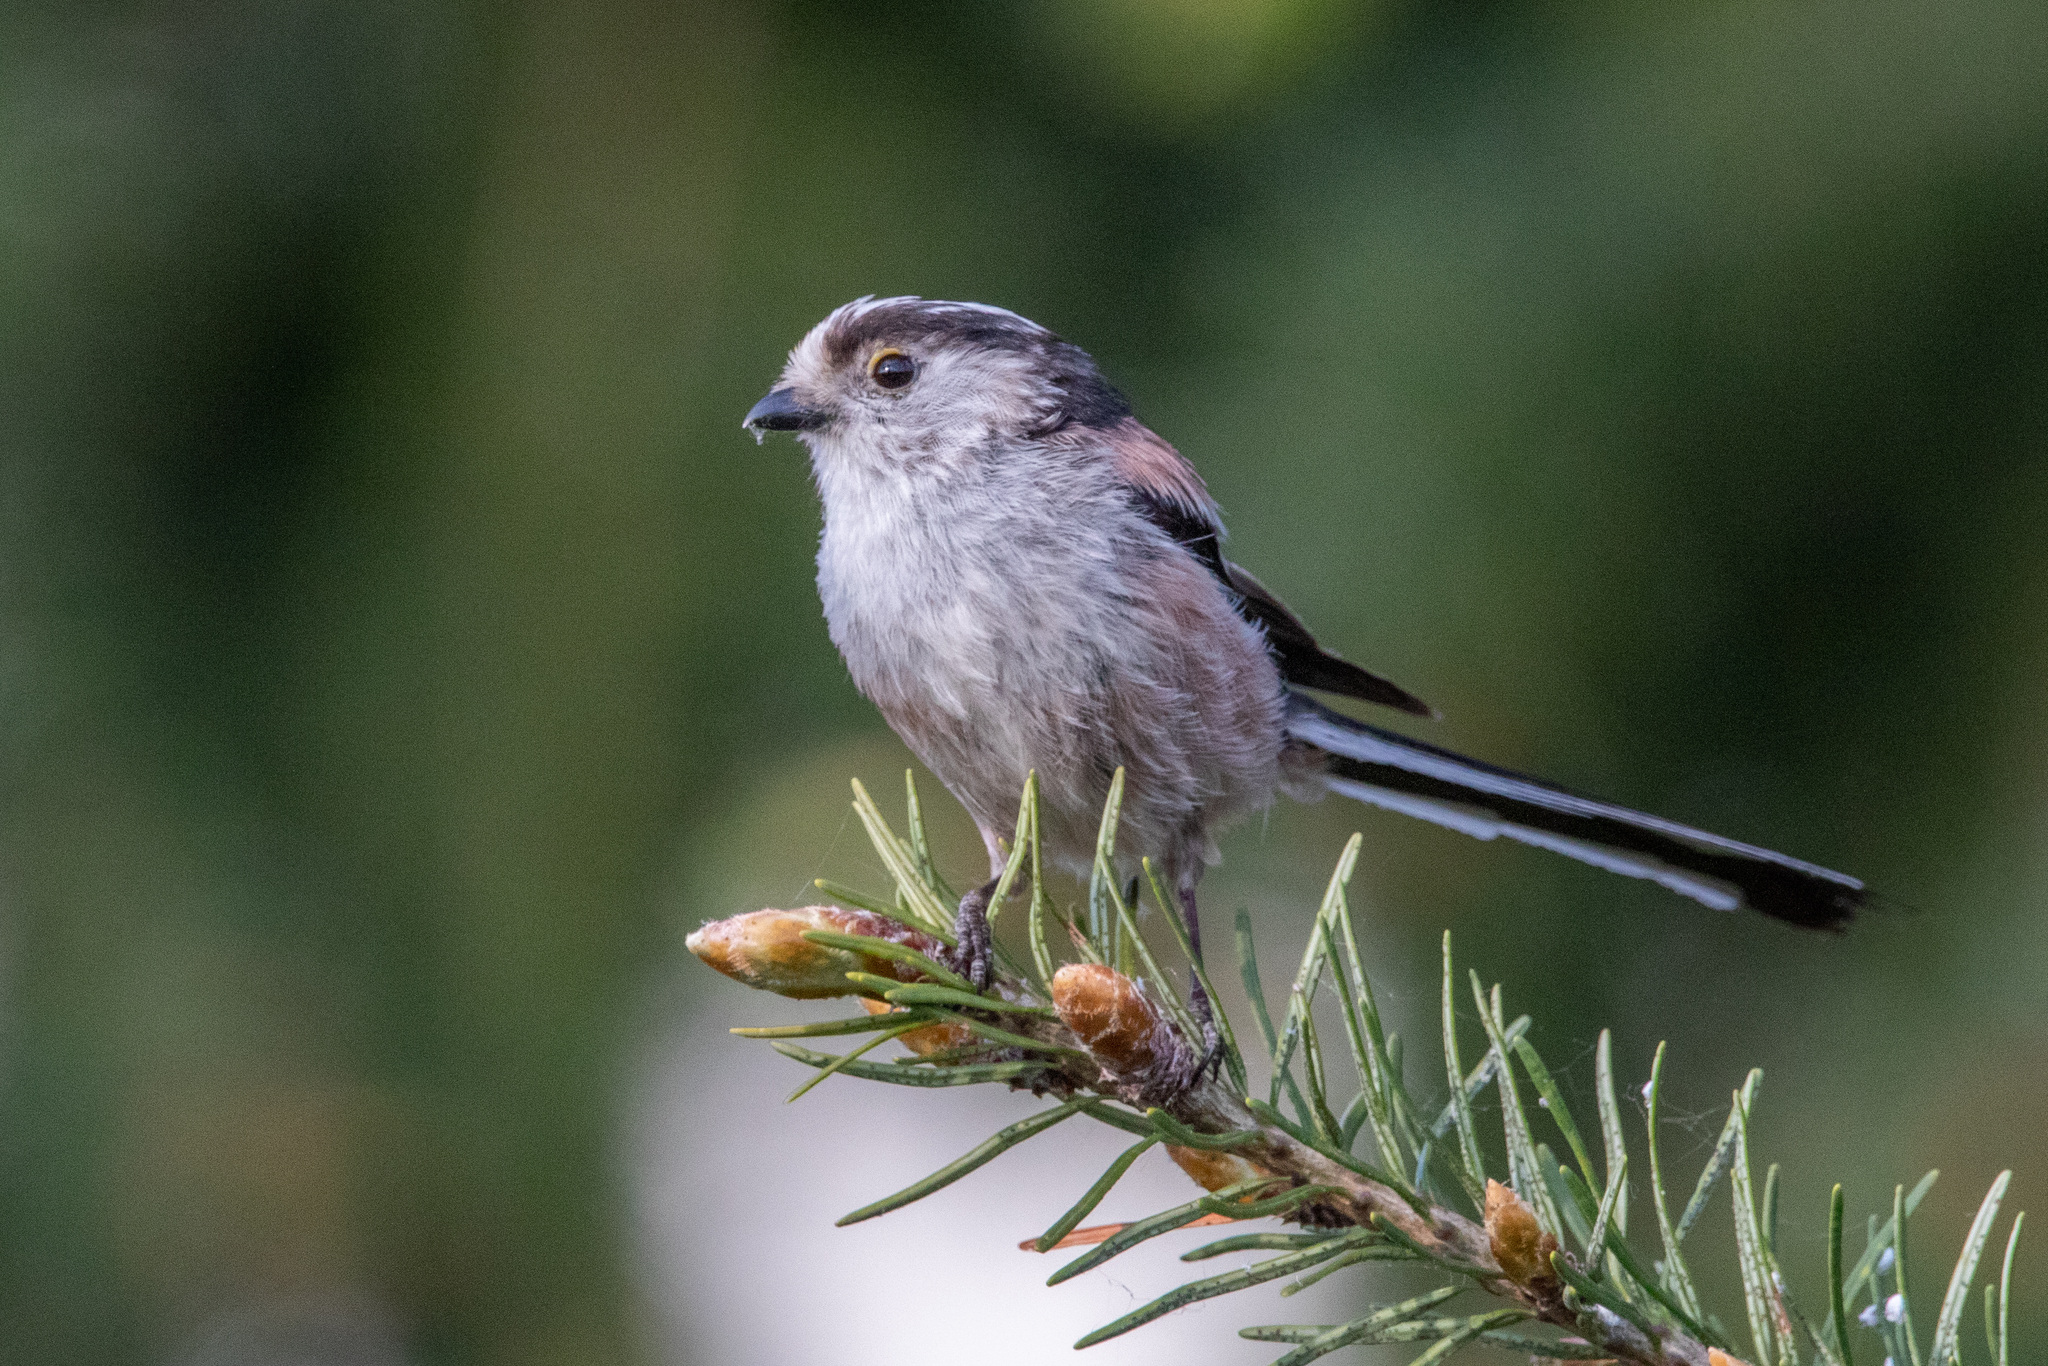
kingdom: Animalia
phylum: Chordata
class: Aves
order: Passeriformes
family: Aegithalidae
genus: Aegithalos
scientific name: Aegithalos caudatus
